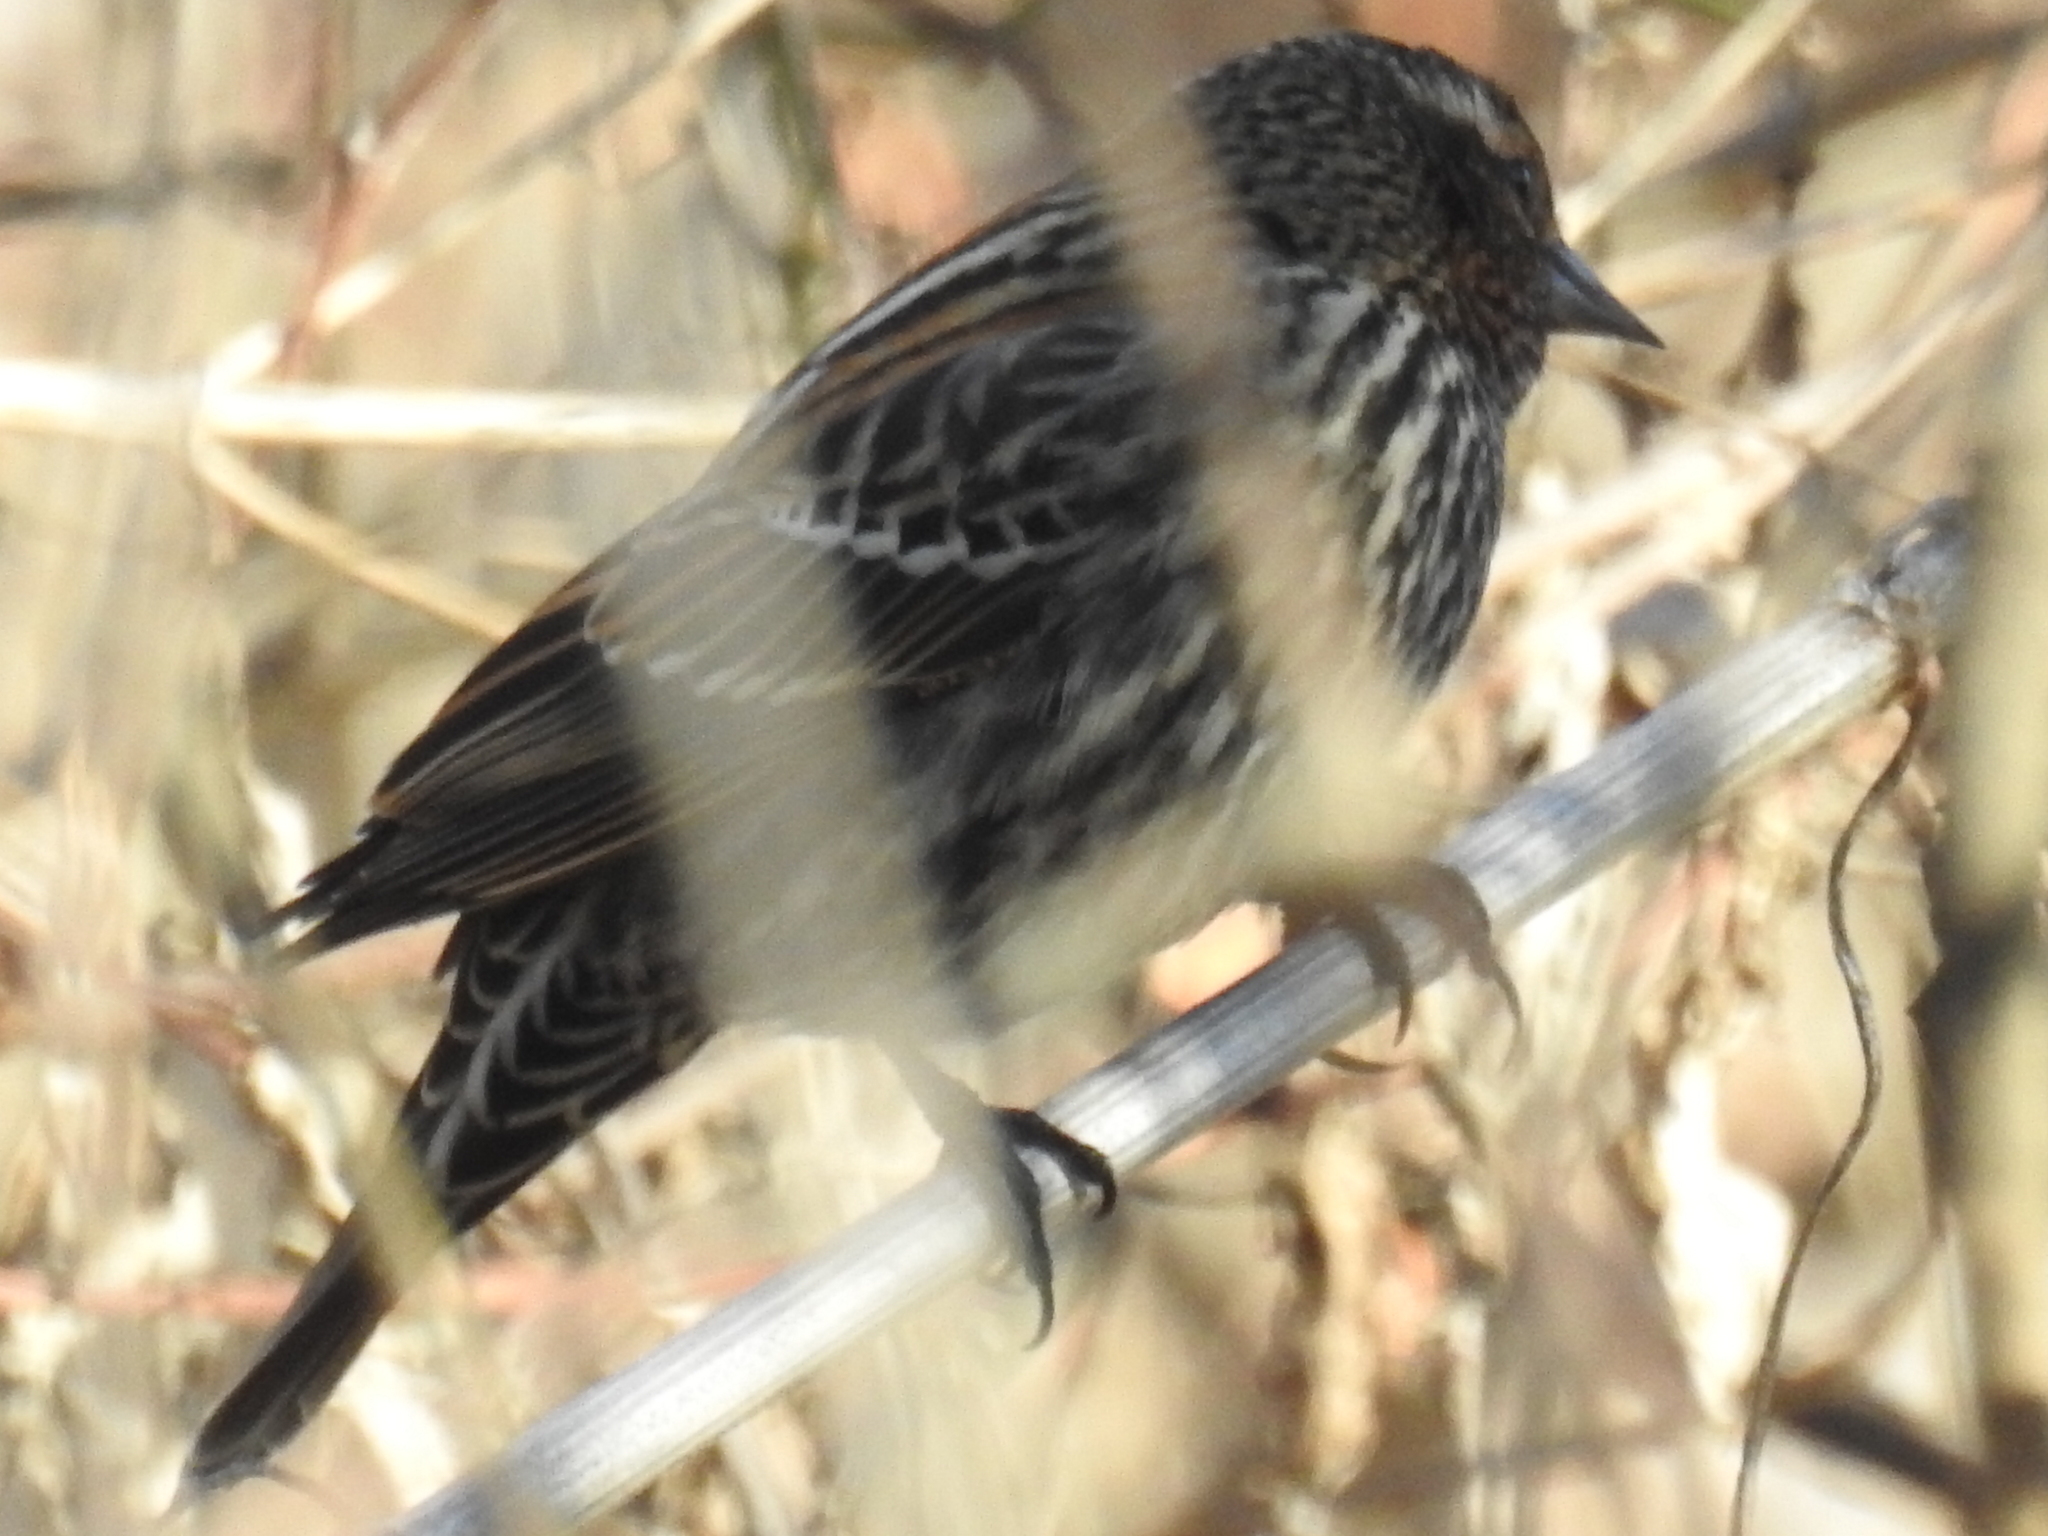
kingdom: Animalia
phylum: Chordata
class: Aves
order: Passeriformes
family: Icteridae
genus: Agelaius
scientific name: Agelaius phoeniceus
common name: Red-winged blackbird
